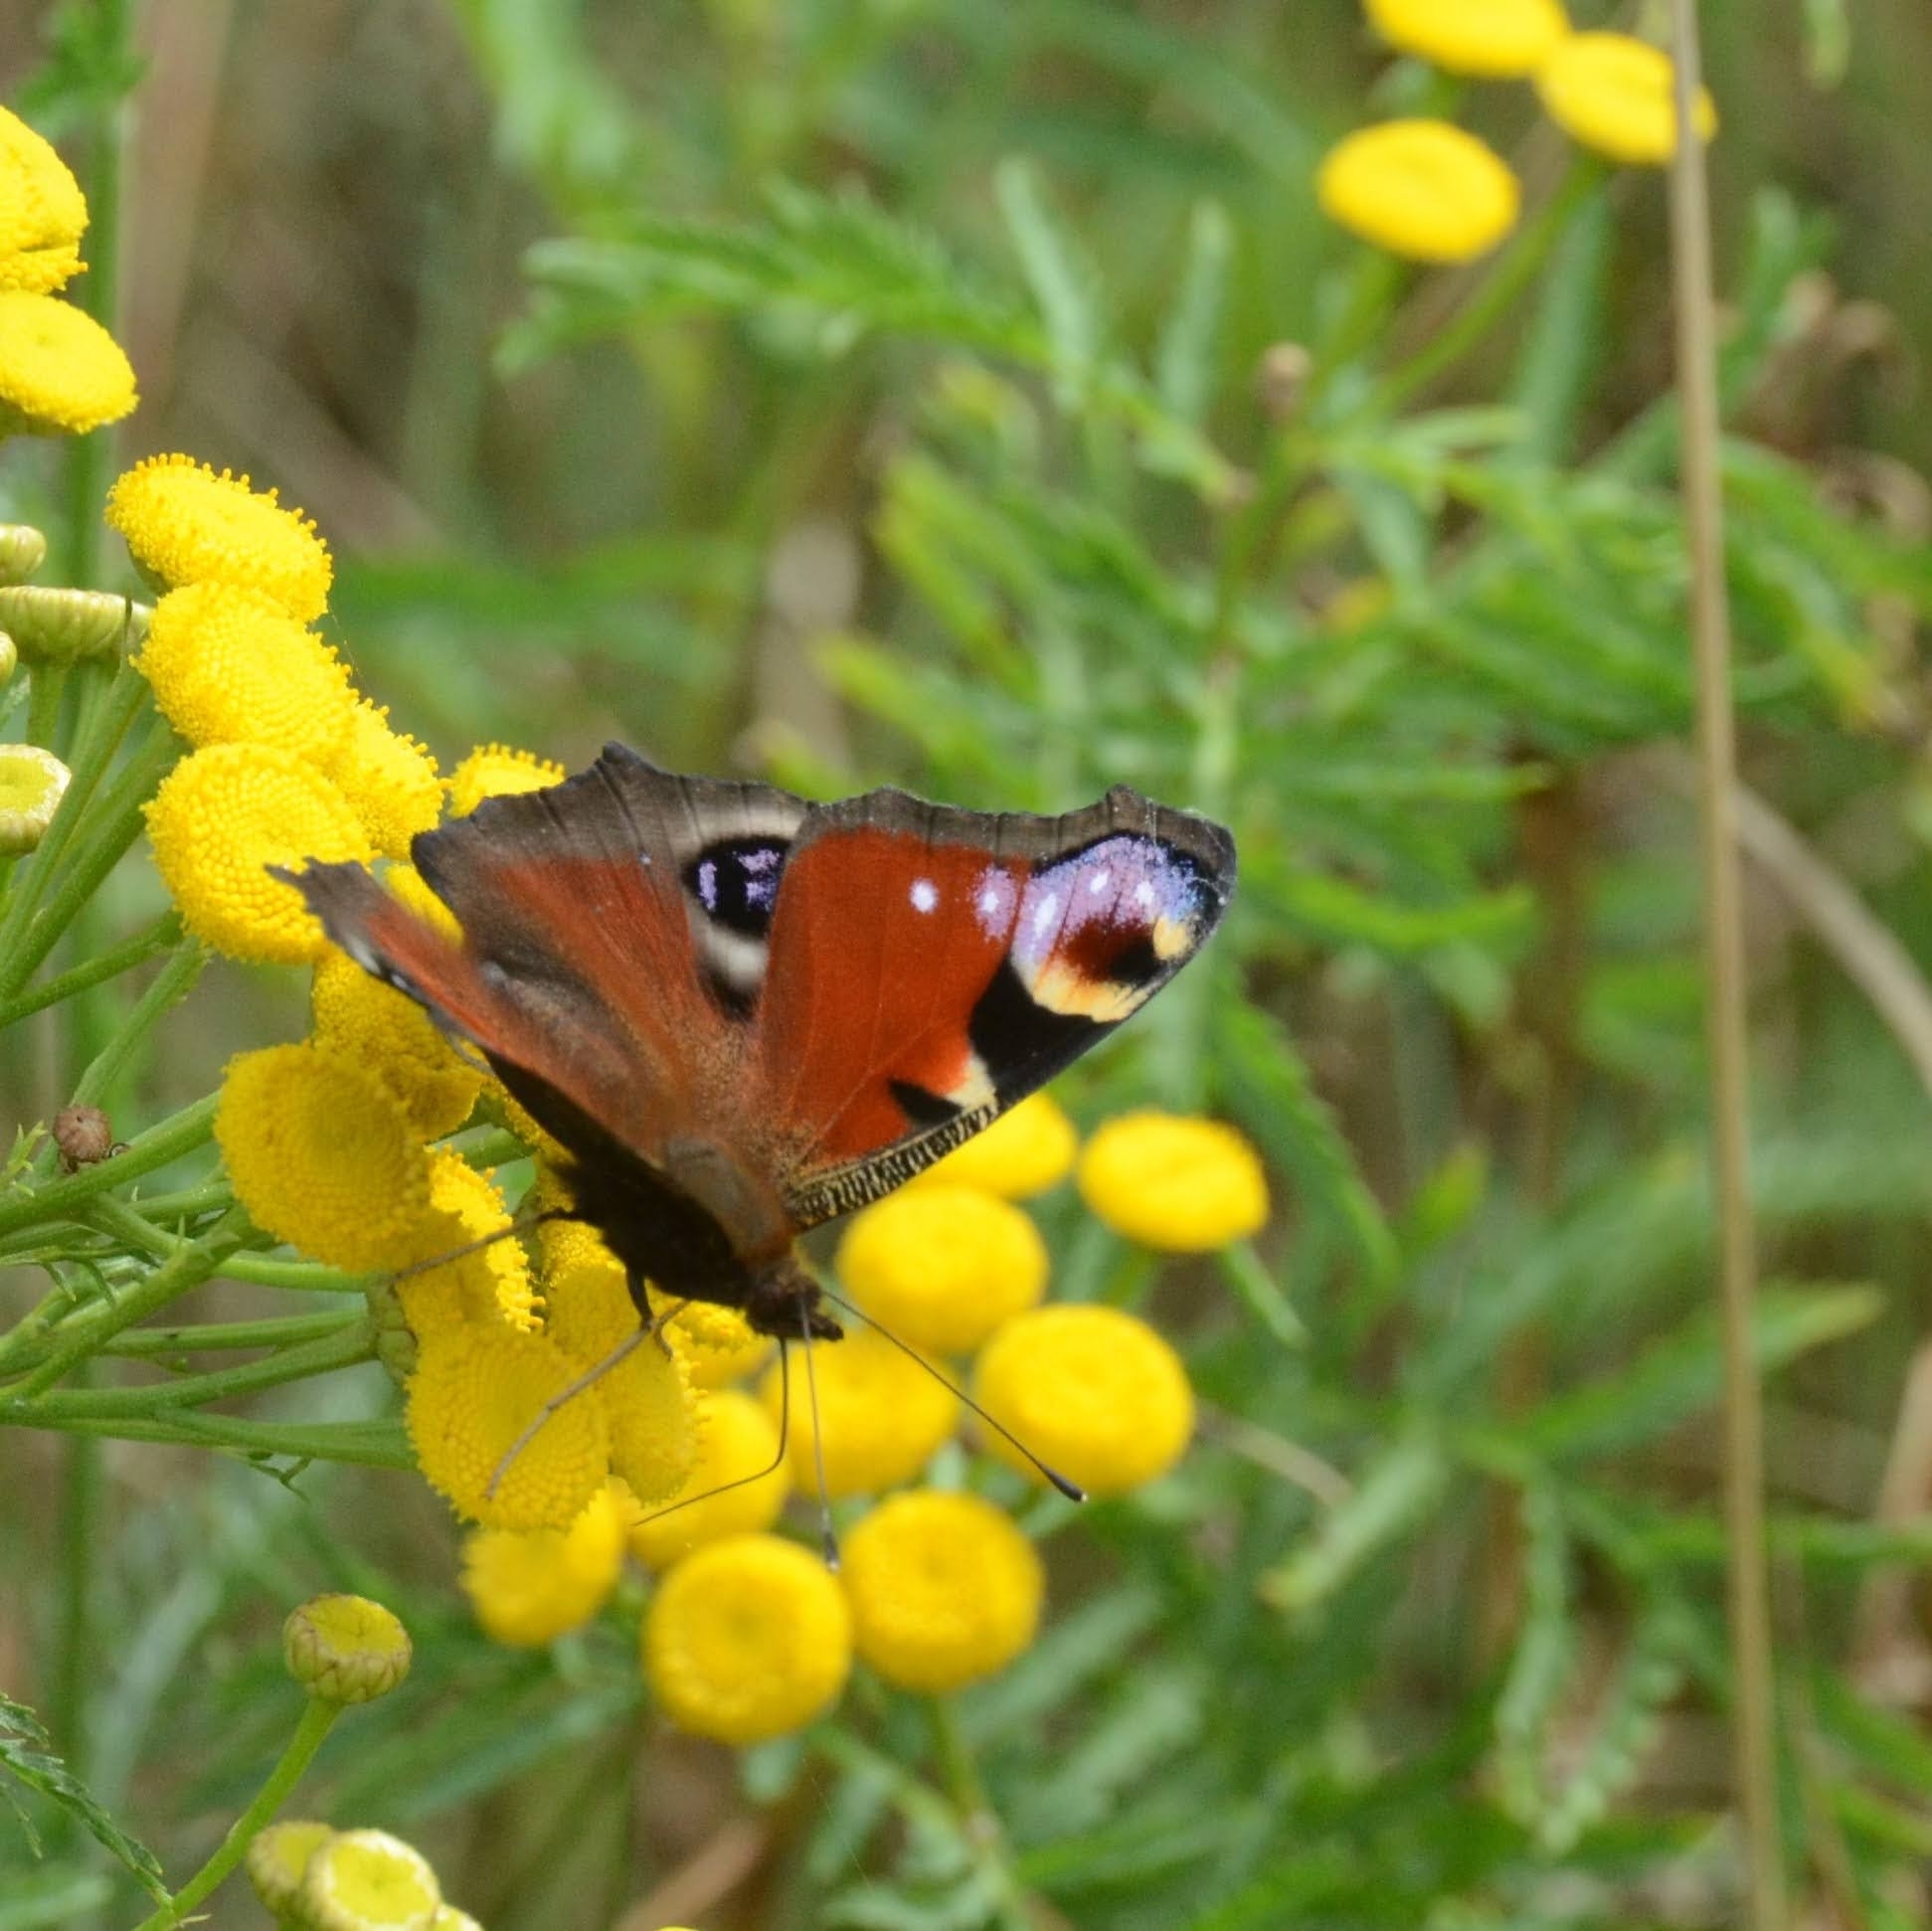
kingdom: Animalia
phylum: Arthropoda
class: Insecta
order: Lepidoptera
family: Nymphalidae
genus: Aglais
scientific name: Aglais io
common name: Peacock
